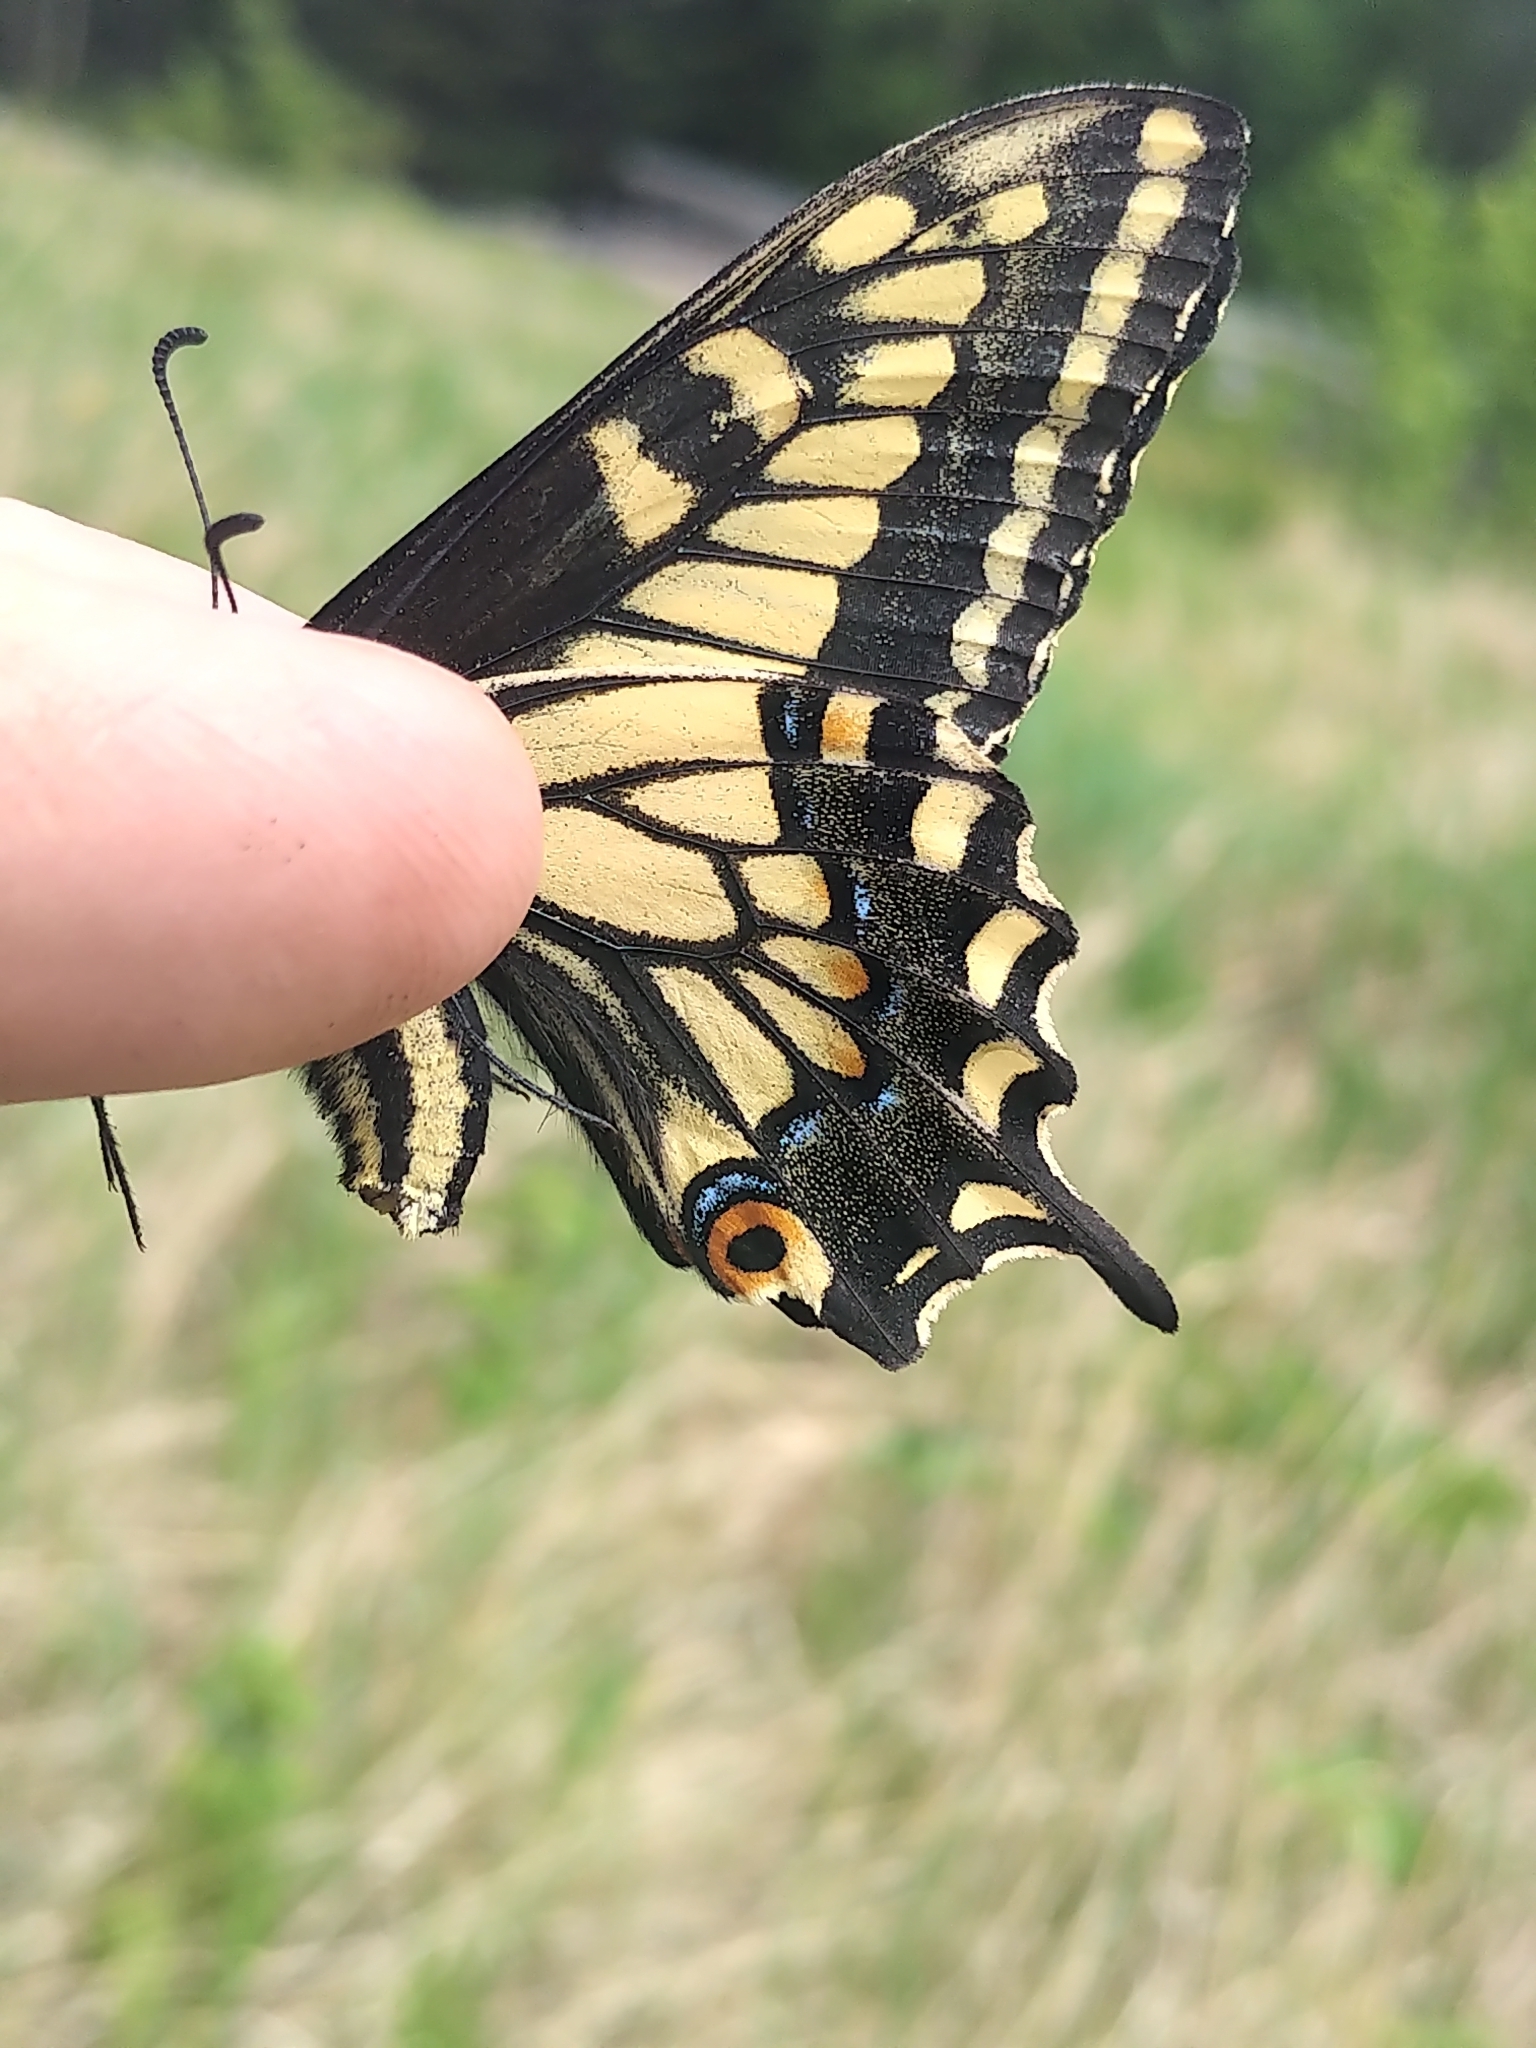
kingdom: Animalia
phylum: Arthropoda
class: Insecta
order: Lepidoptera
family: Papilionidae
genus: Papilio
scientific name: Papilio zelicaon
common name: Anise swallowtail
